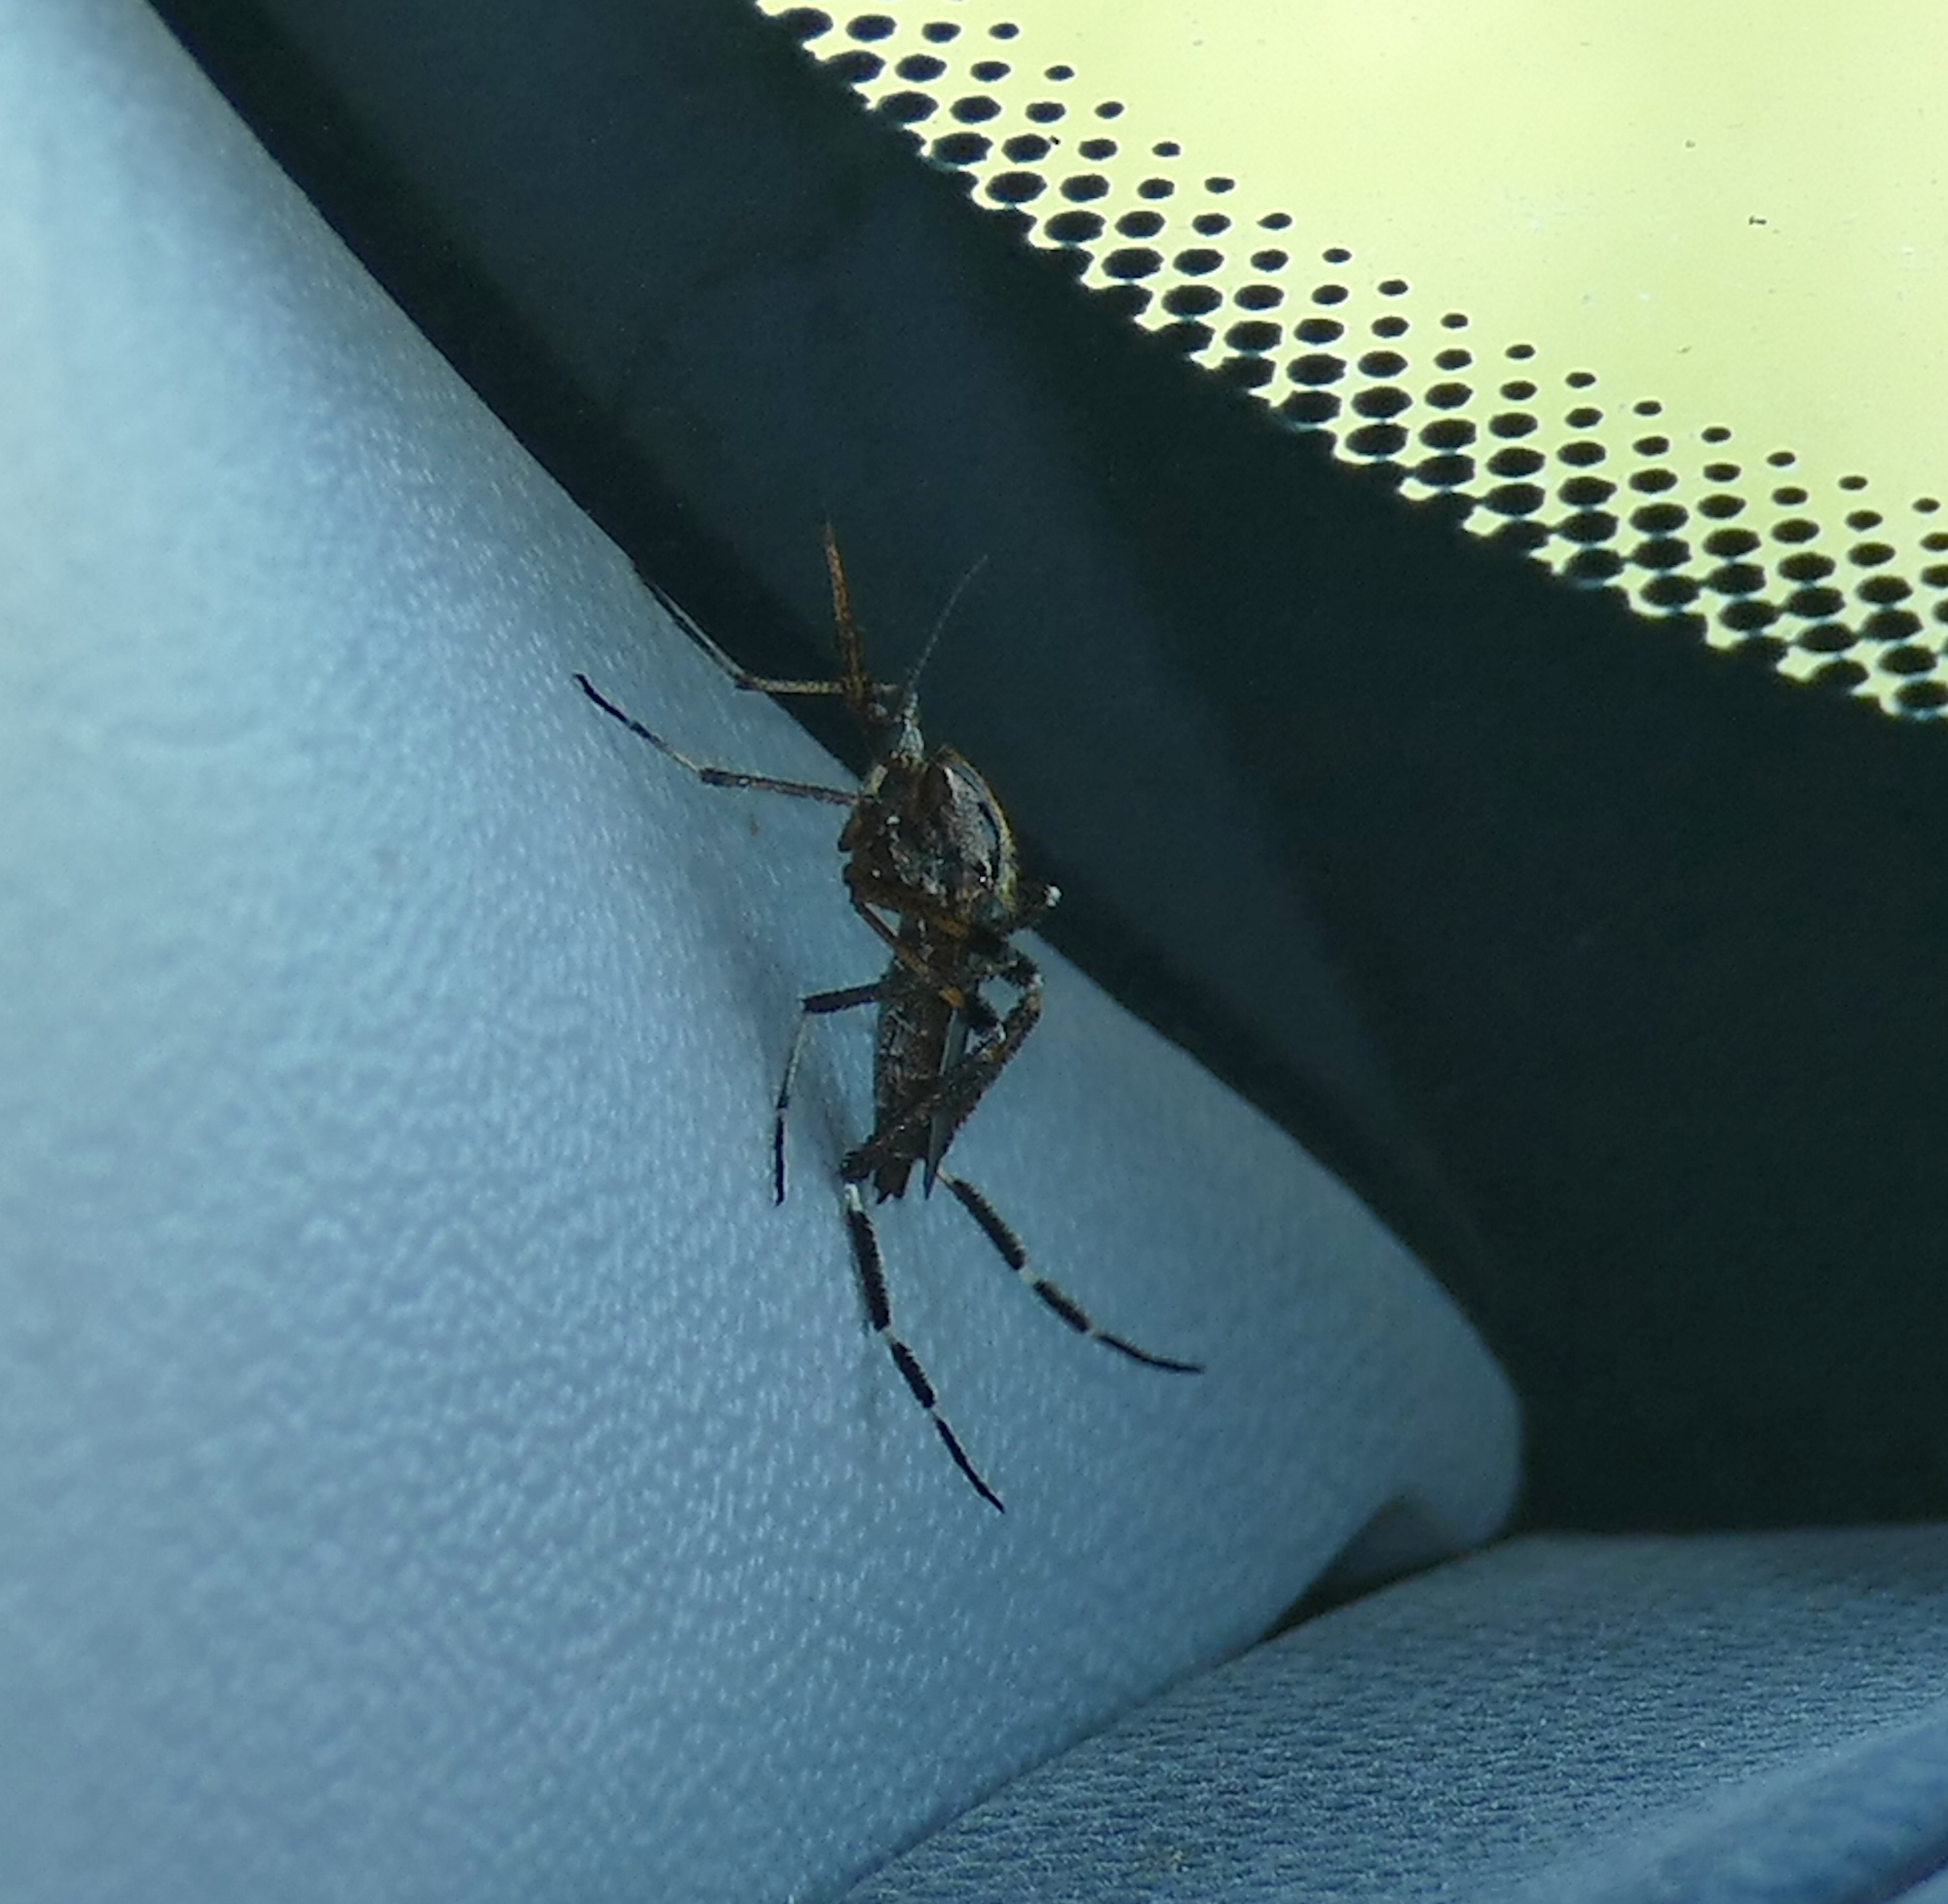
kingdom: Animalia
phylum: Arthropoda
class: Insecta
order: Diptera
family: Culicidae
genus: Psorophora
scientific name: Psorophora ciliata
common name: Gallinipper
